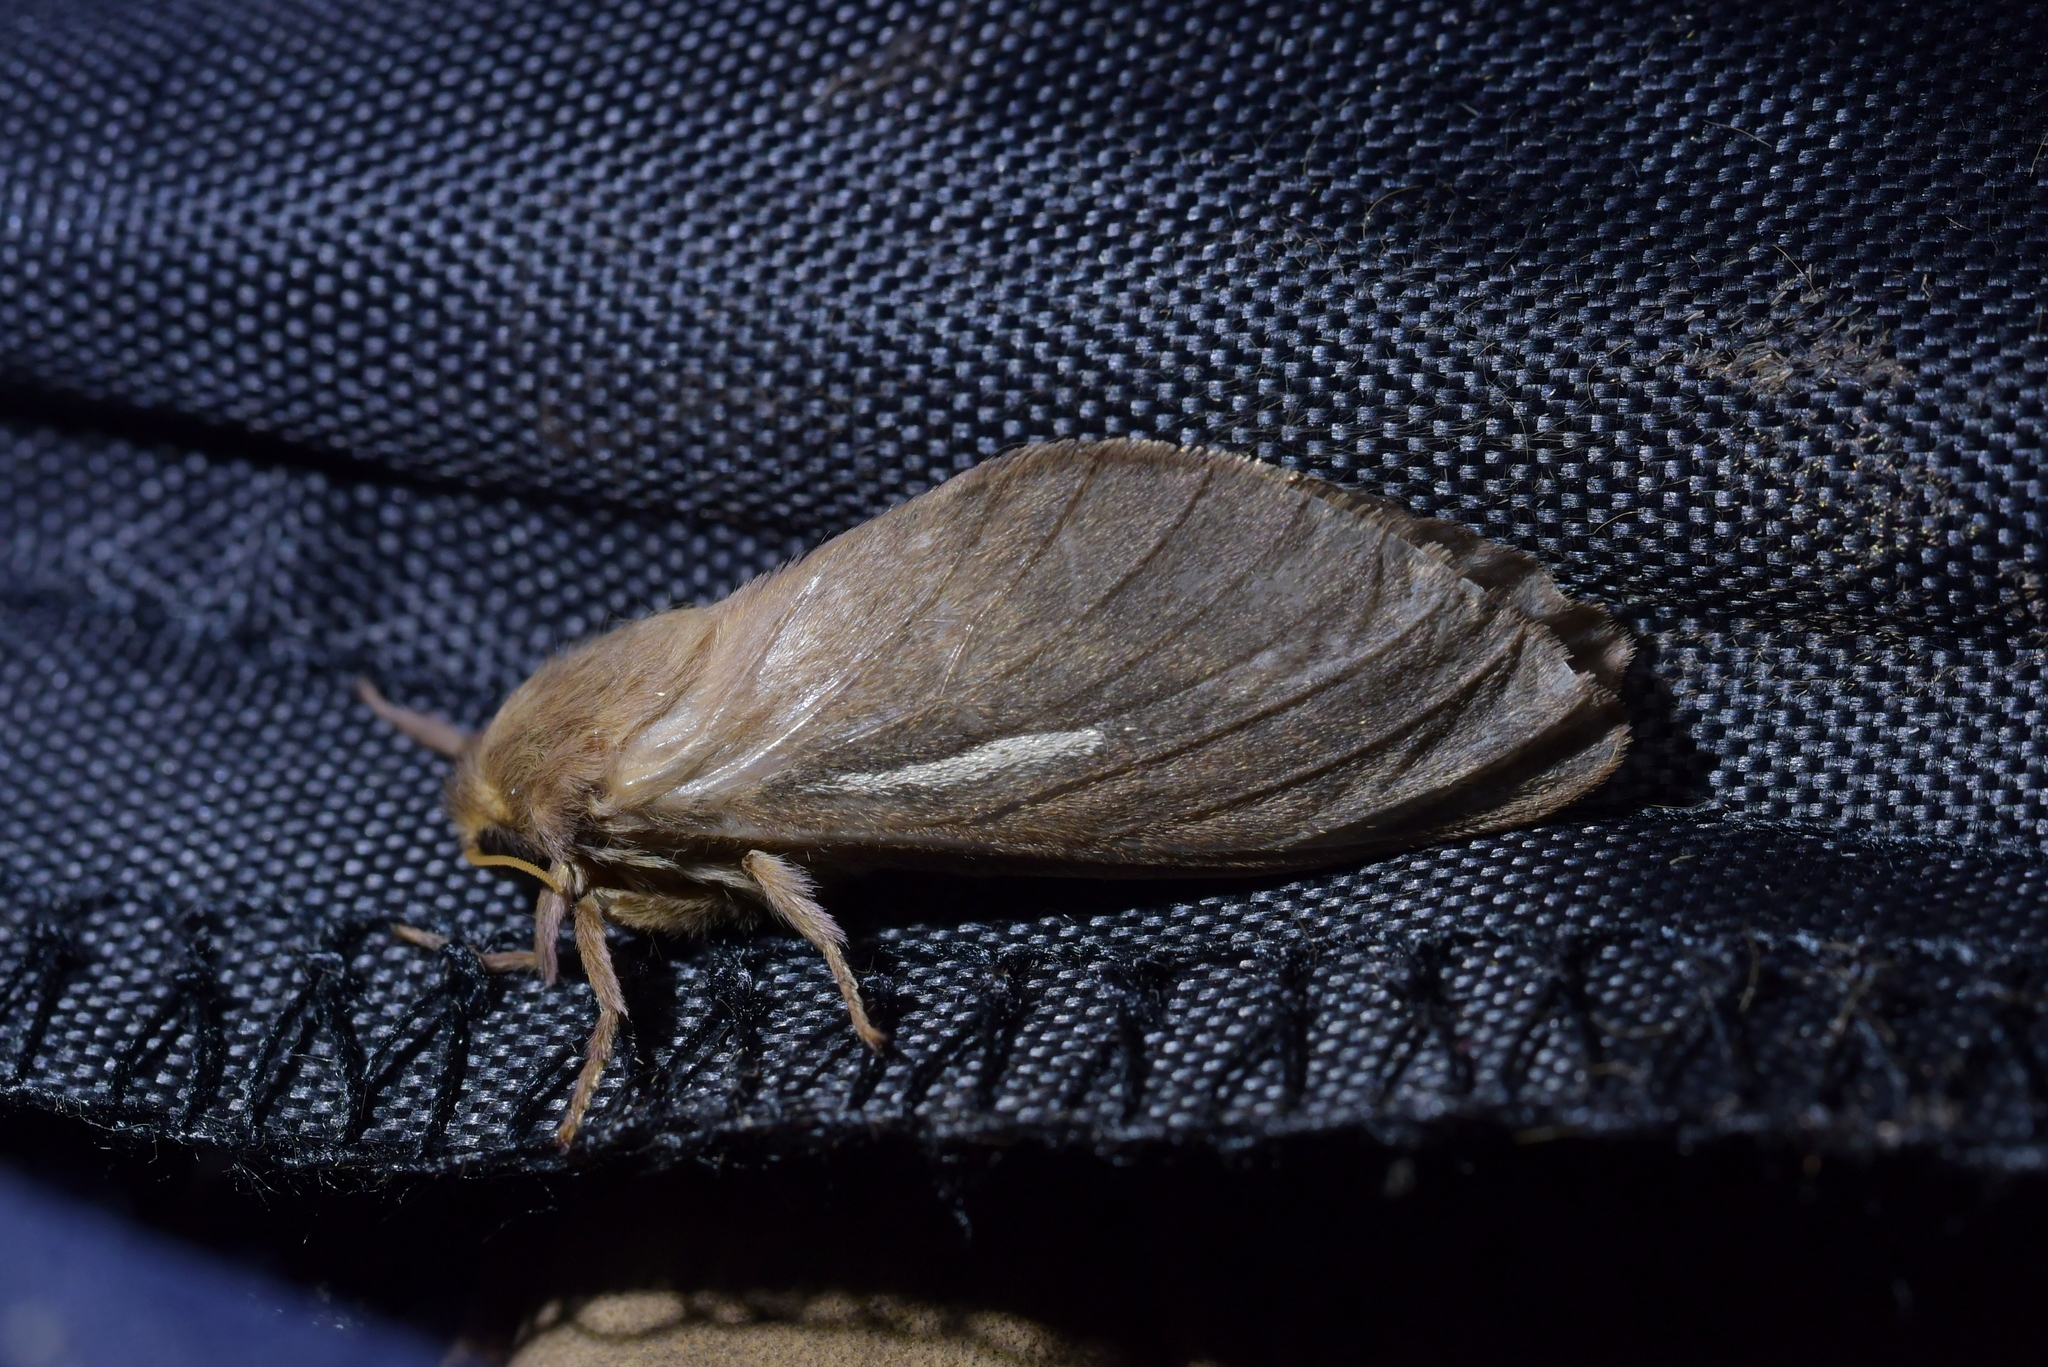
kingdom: Animalia
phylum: Arthropoda
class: Insecta
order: Lepidoptera
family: Hepialidae
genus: Wiseana
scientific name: Wiseana umbraculatus
